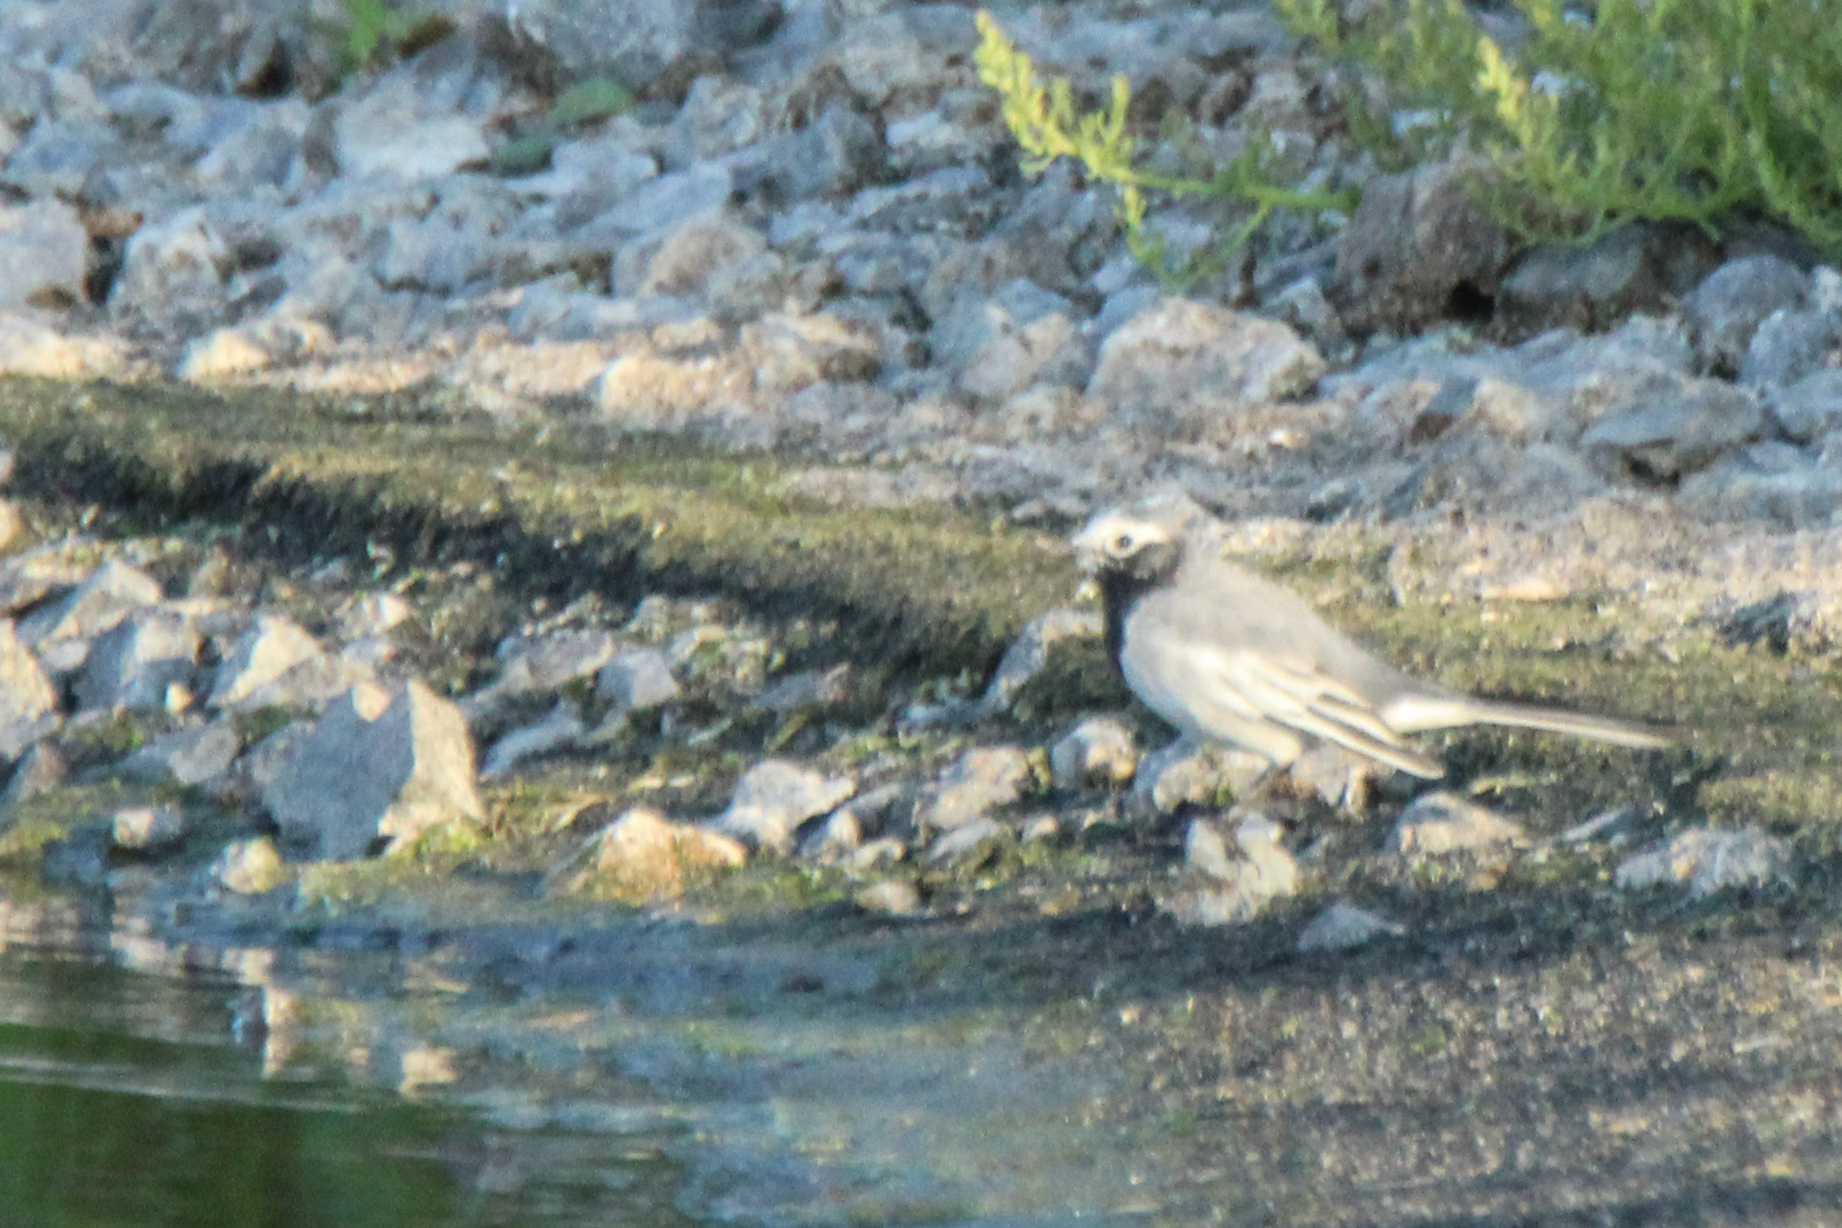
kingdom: Animalia
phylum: Chordata
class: Aves
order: Passeriformes
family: Motacillidae
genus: Motacilla
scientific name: Motacilla alba
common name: White wagtail
